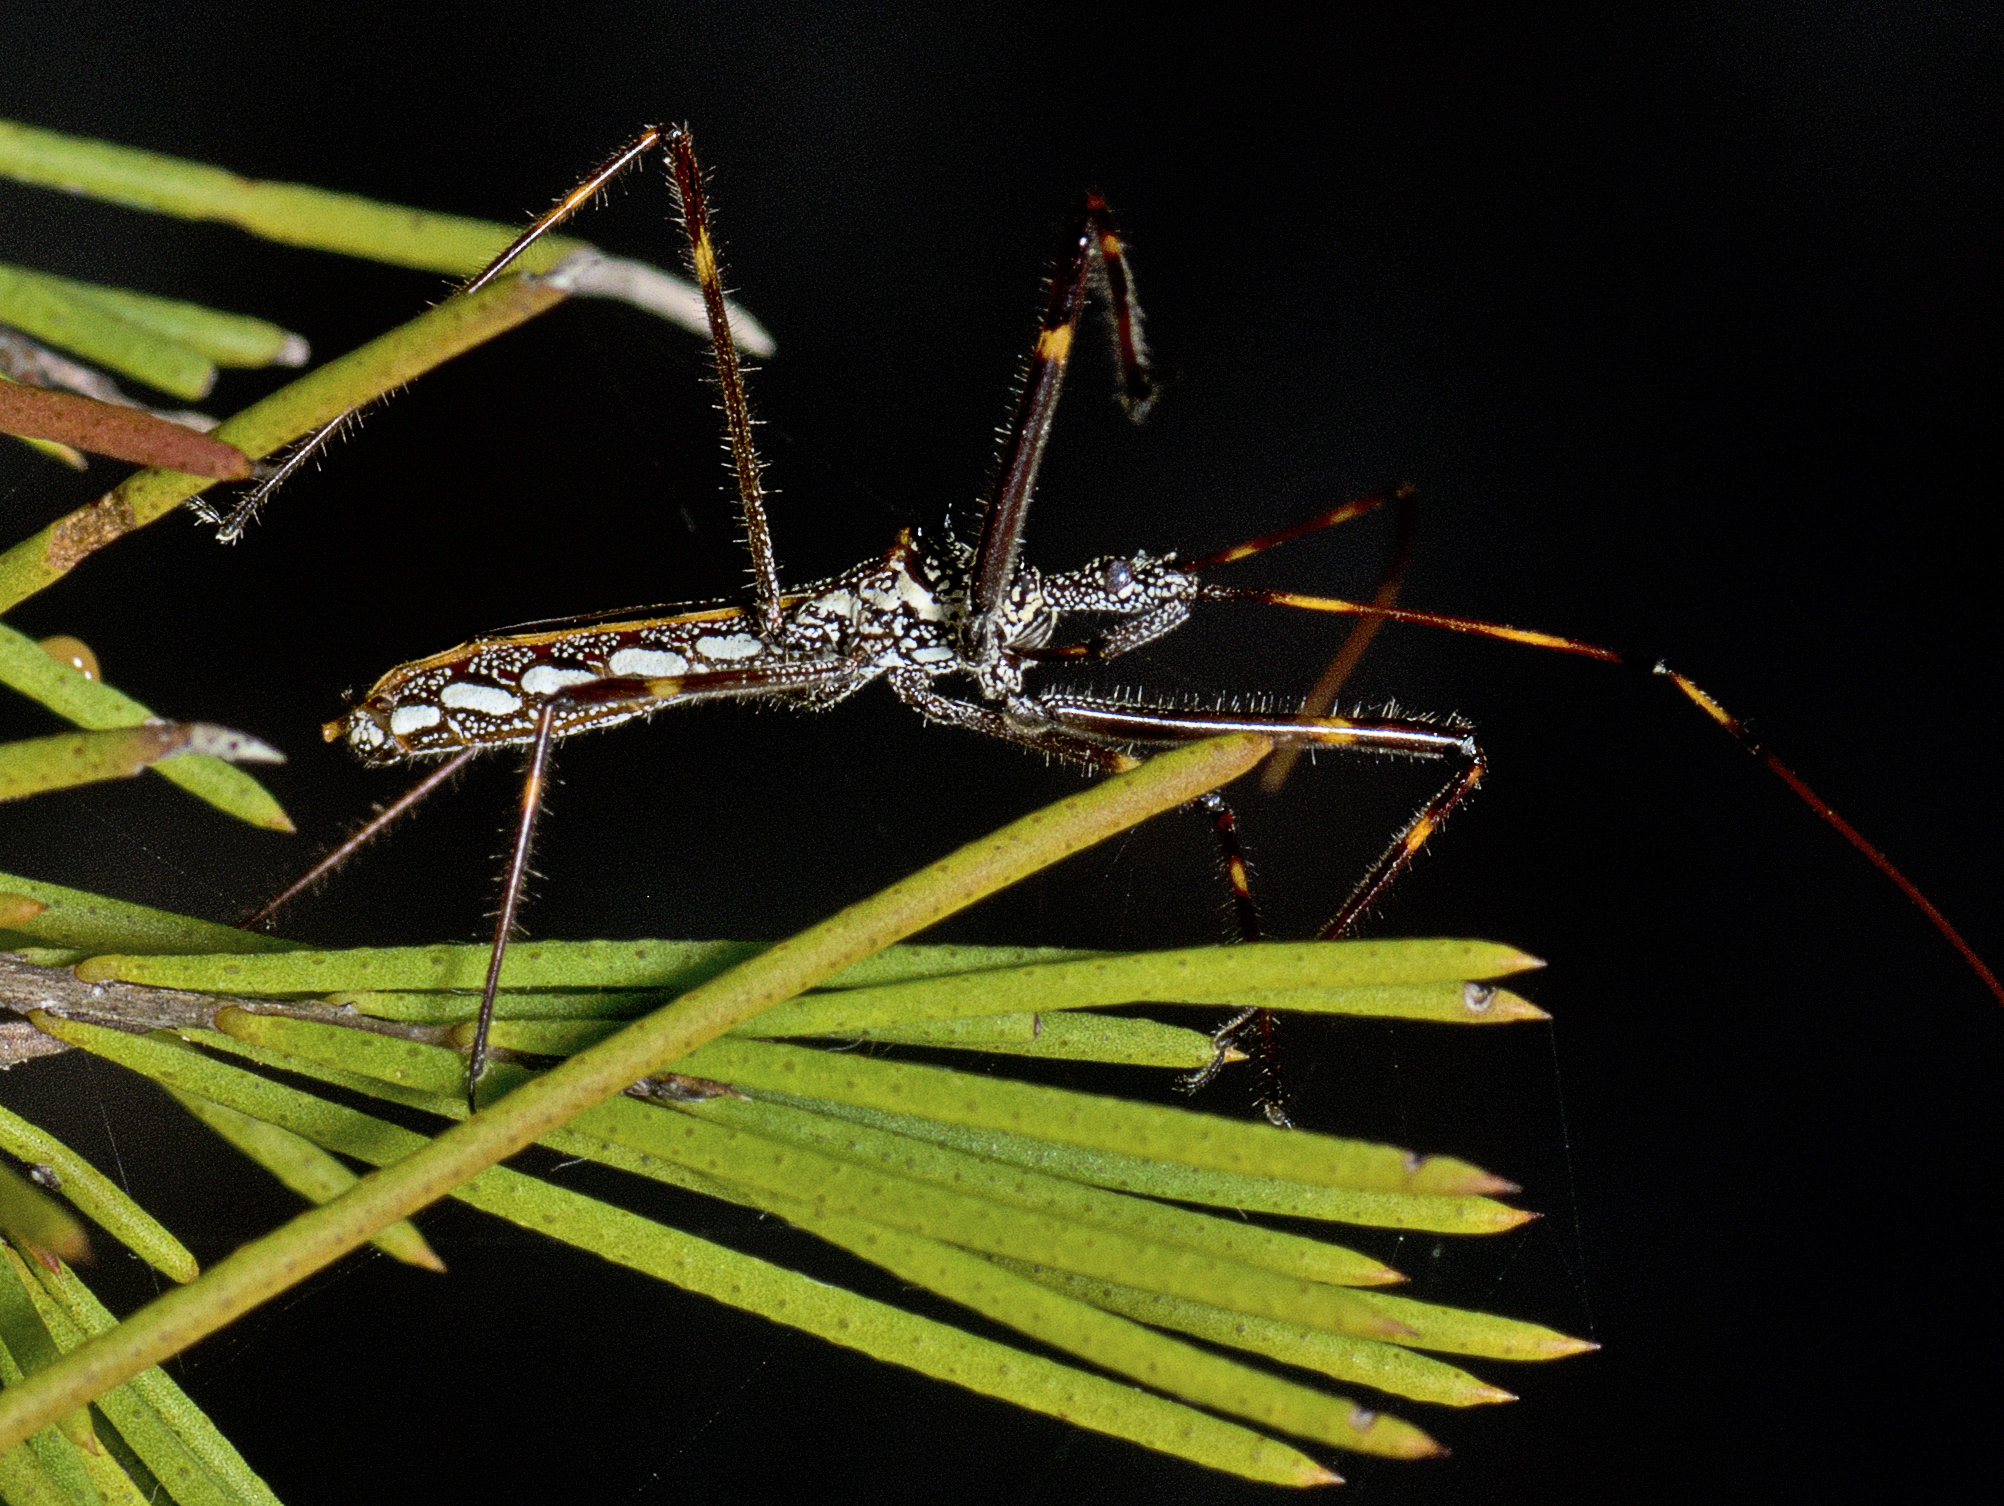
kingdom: Animalia
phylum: Arthropoda
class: Insecta
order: Hemiptera
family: Reduviidae
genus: Pnirsus
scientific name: Pnirsus cinctipes
